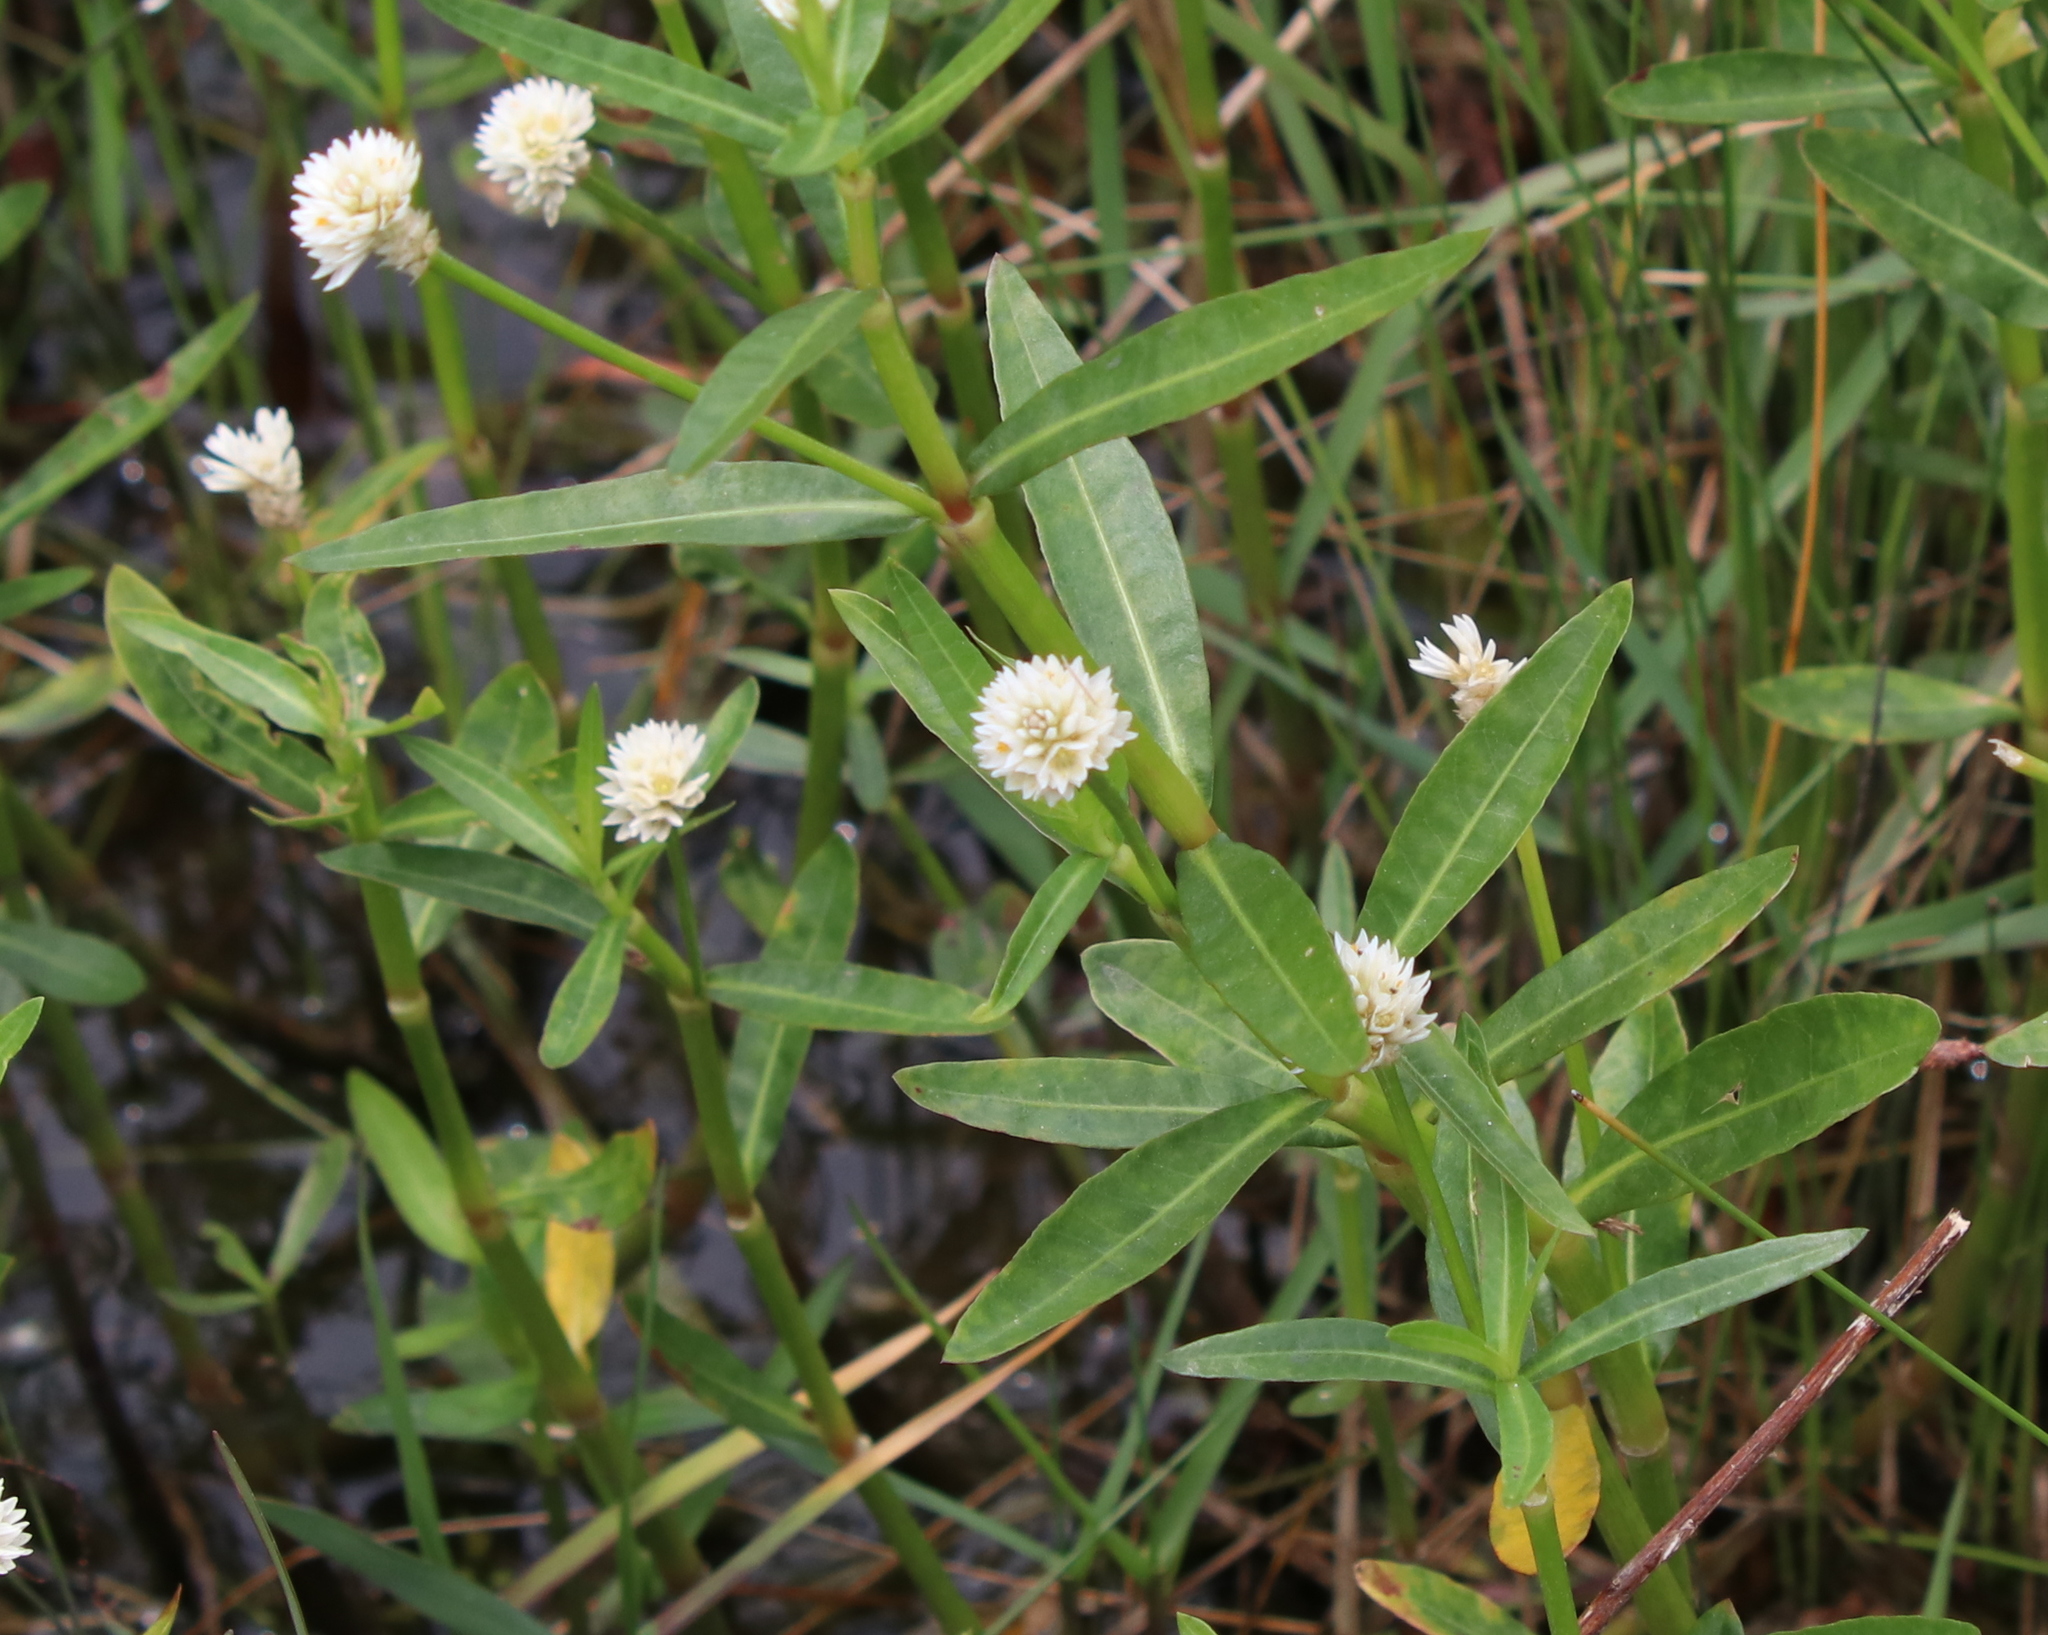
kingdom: Plantae
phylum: Tracheophyta
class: Magnoliopsida
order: Caryophyllales
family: Amaranthaceae
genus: Alternanthera
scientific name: Alternanthera philoxeroides
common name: Alligatorweed
